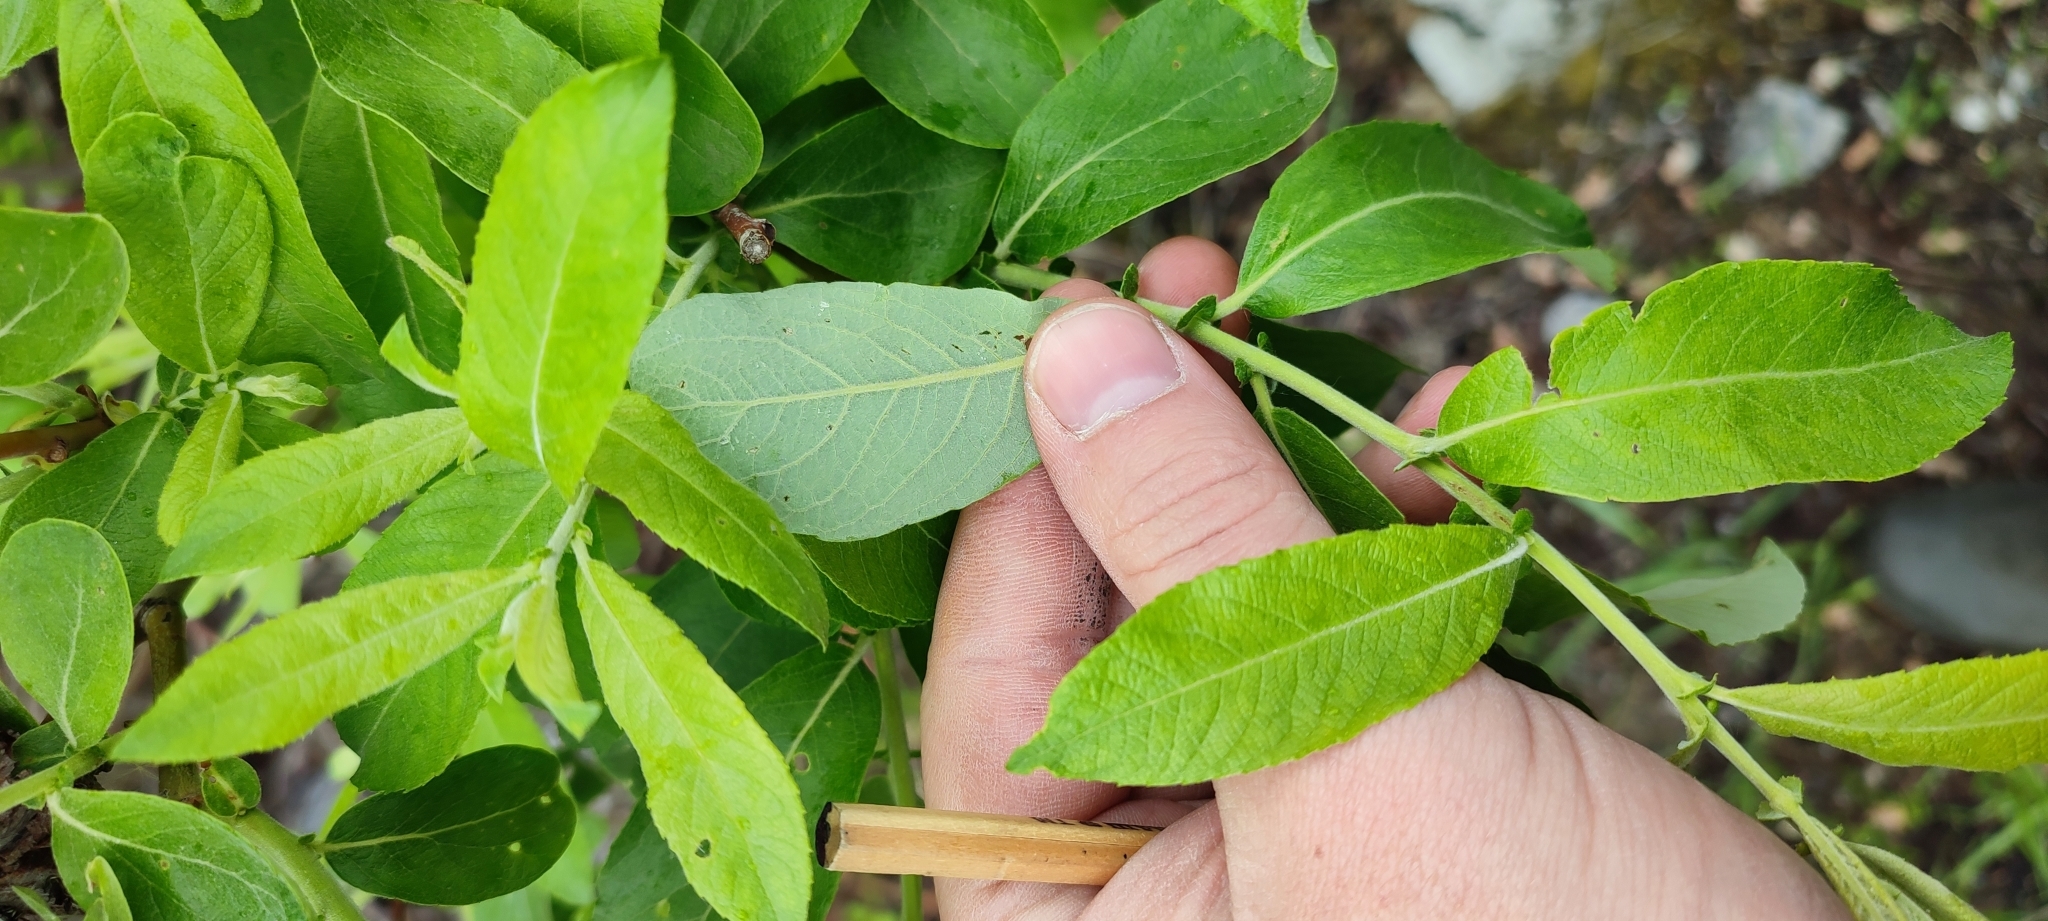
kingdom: Plantae
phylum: Tracheophyta
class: Magnoliopsida
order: Malpighiales
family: Salicaceae
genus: Salix
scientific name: Salix cinerea
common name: Common sallow
